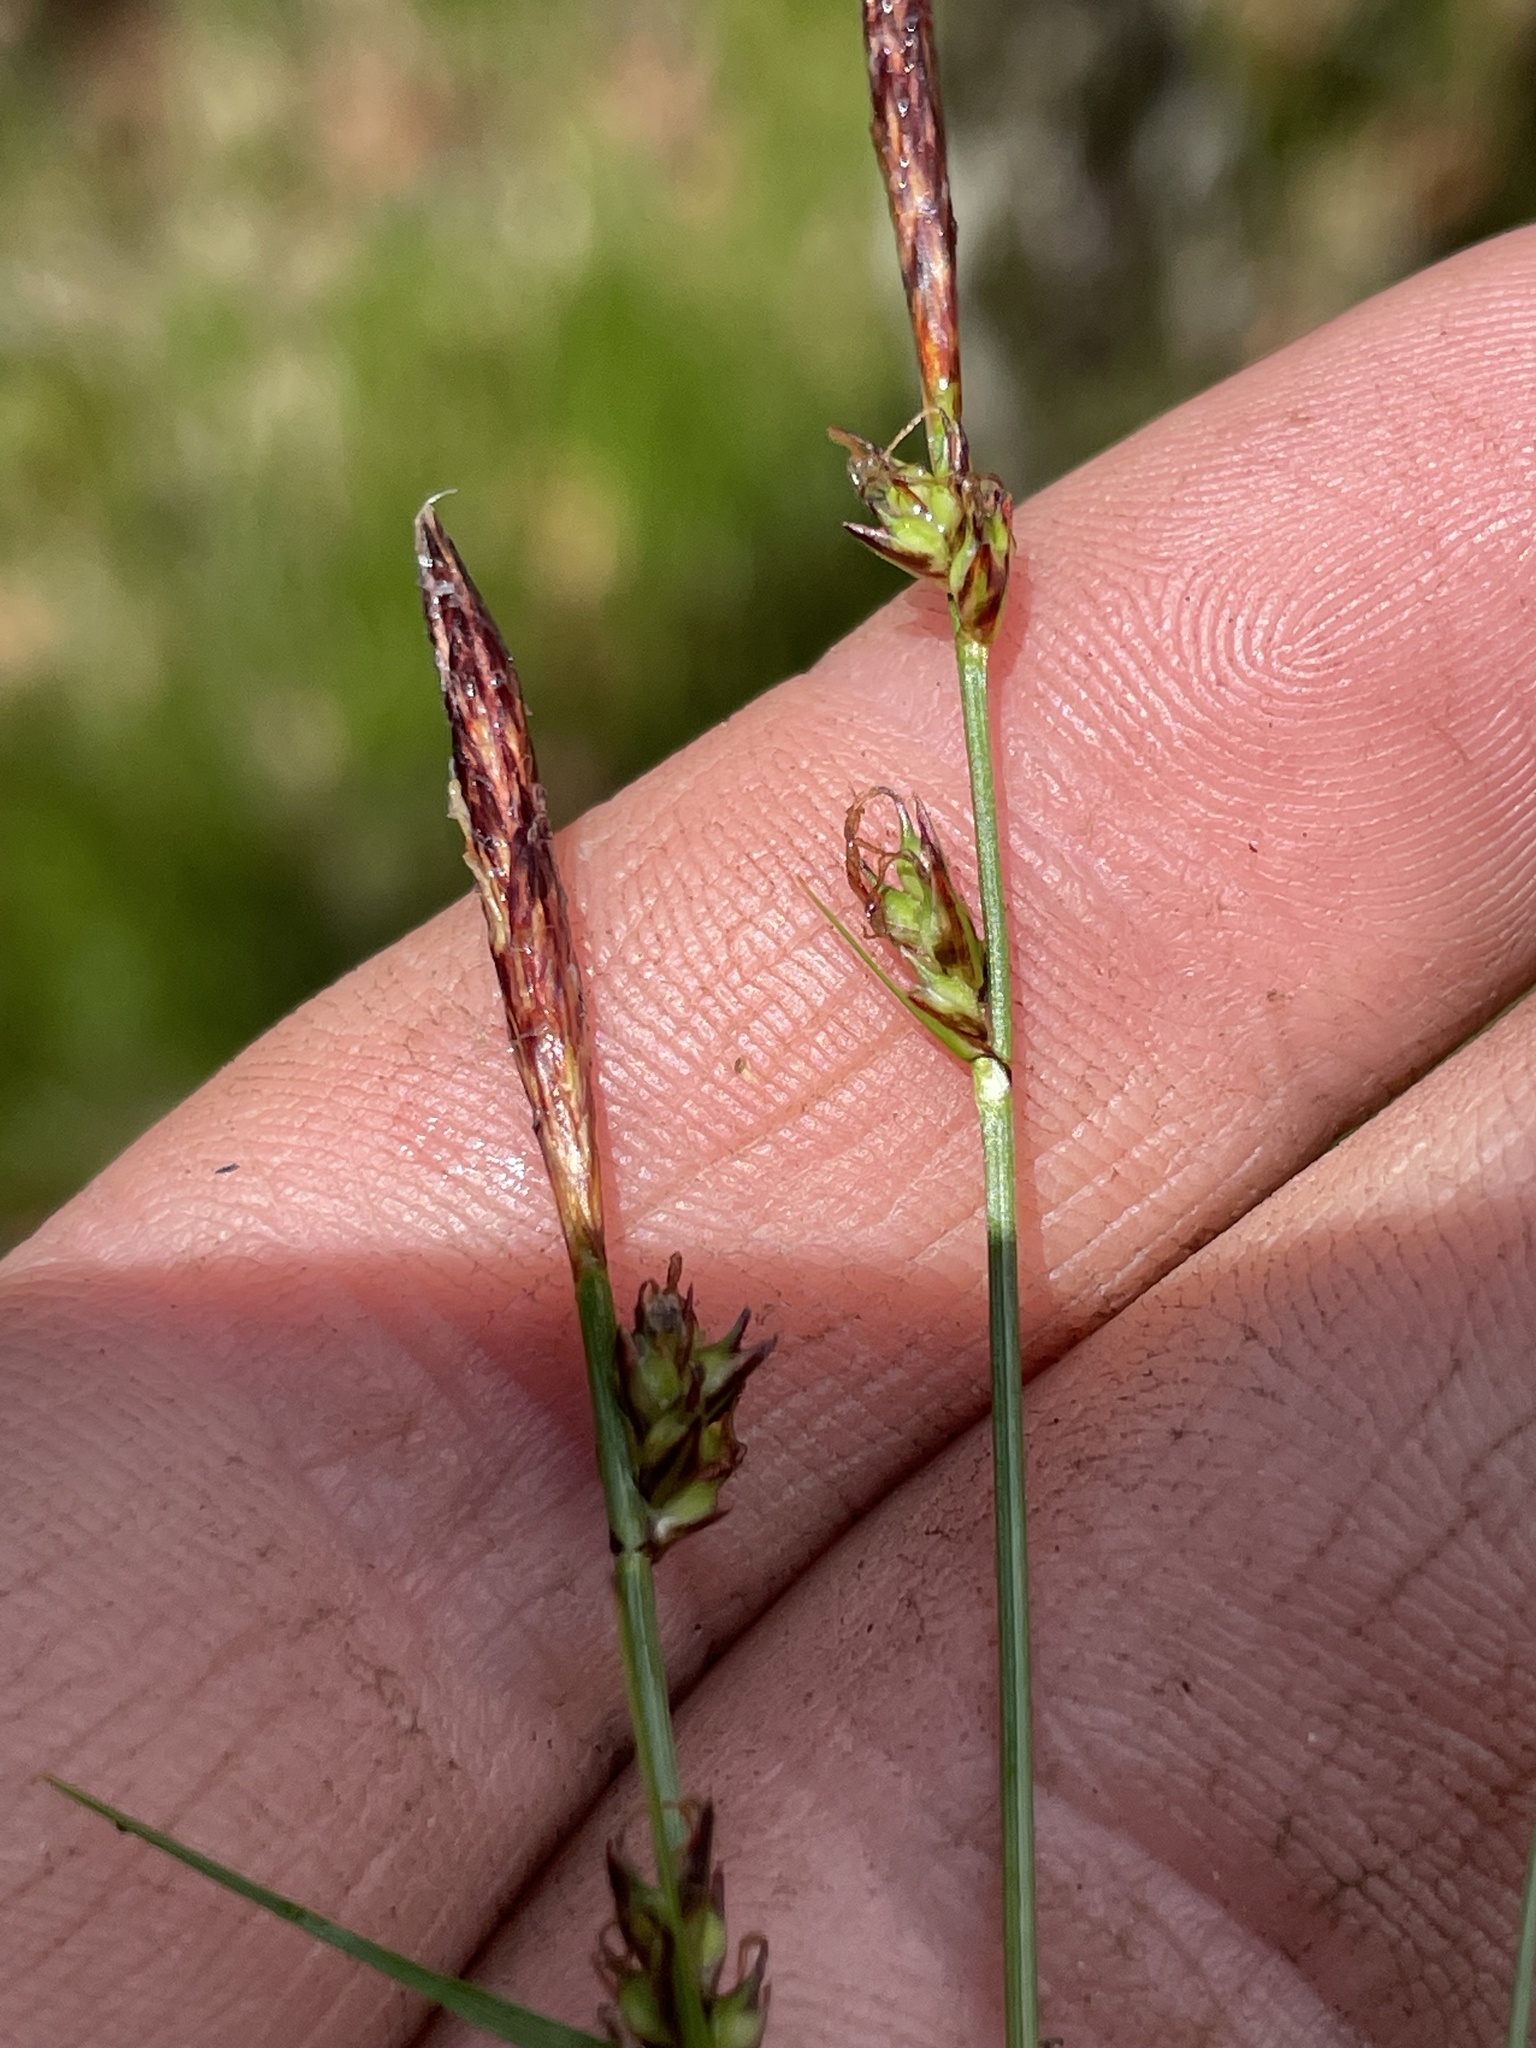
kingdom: Plantae
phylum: Tracheophyta
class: Liliopsida
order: Poales
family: Cyperaceae
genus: Carex
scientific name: Carex austrolucorum
